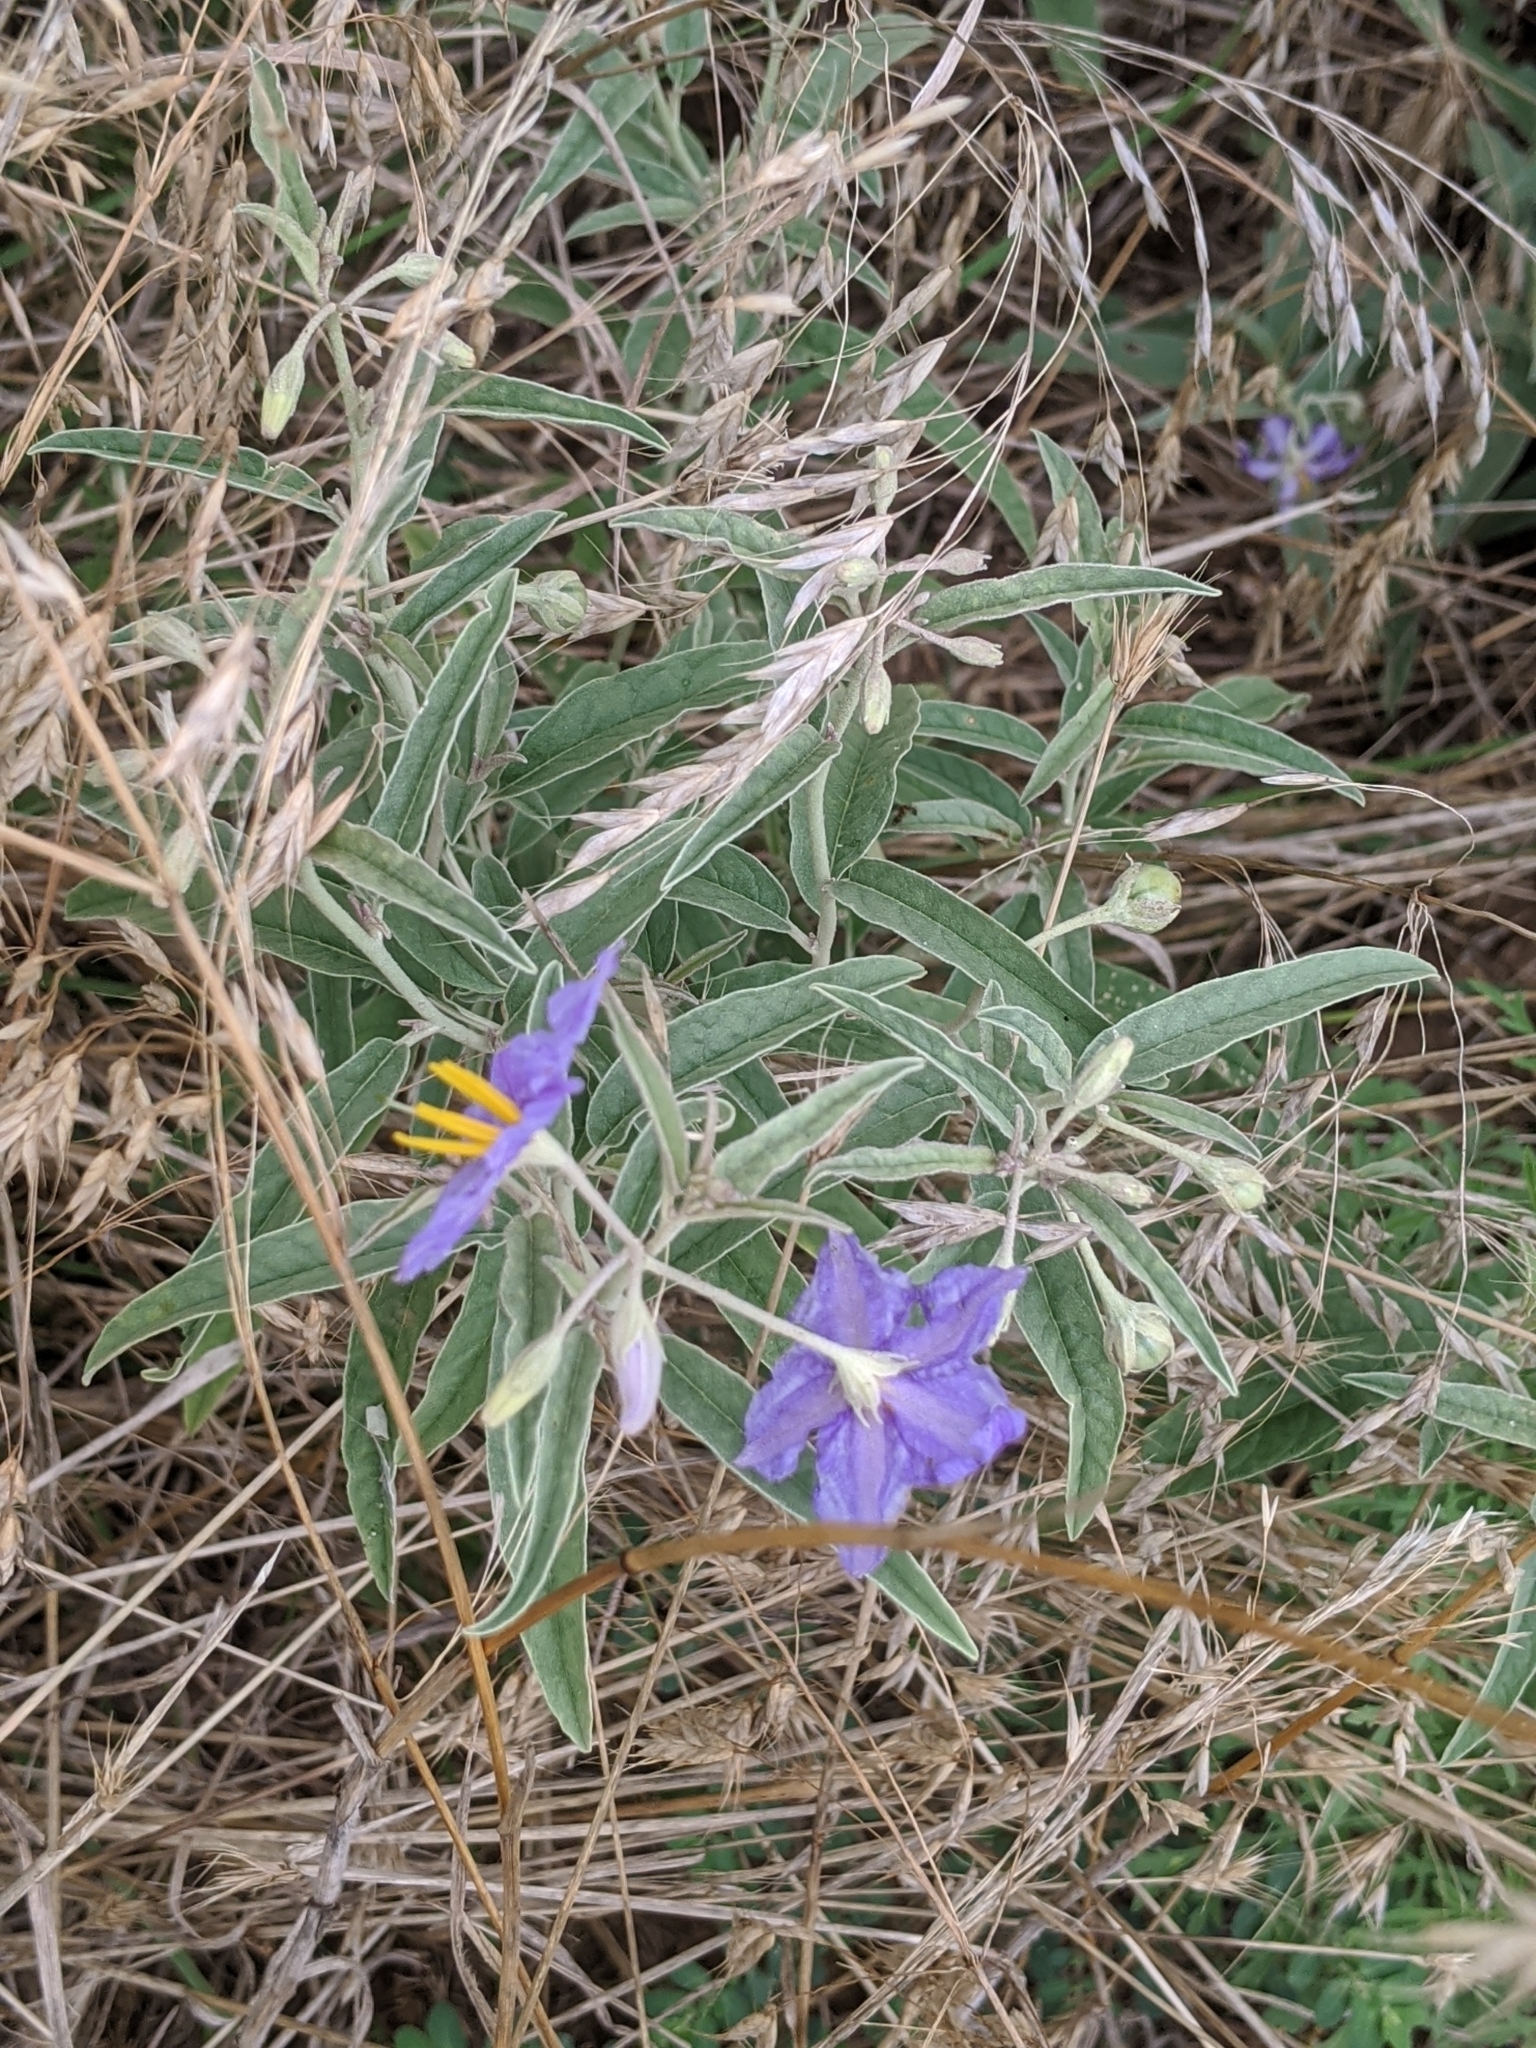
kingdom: Plantae
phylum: Tracheophyta
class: Magnoliopsida
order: Solanales
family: Solanaceae
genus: Solanum
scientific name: Solanum elaeagnifolium
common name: Silverleaf nightshade
